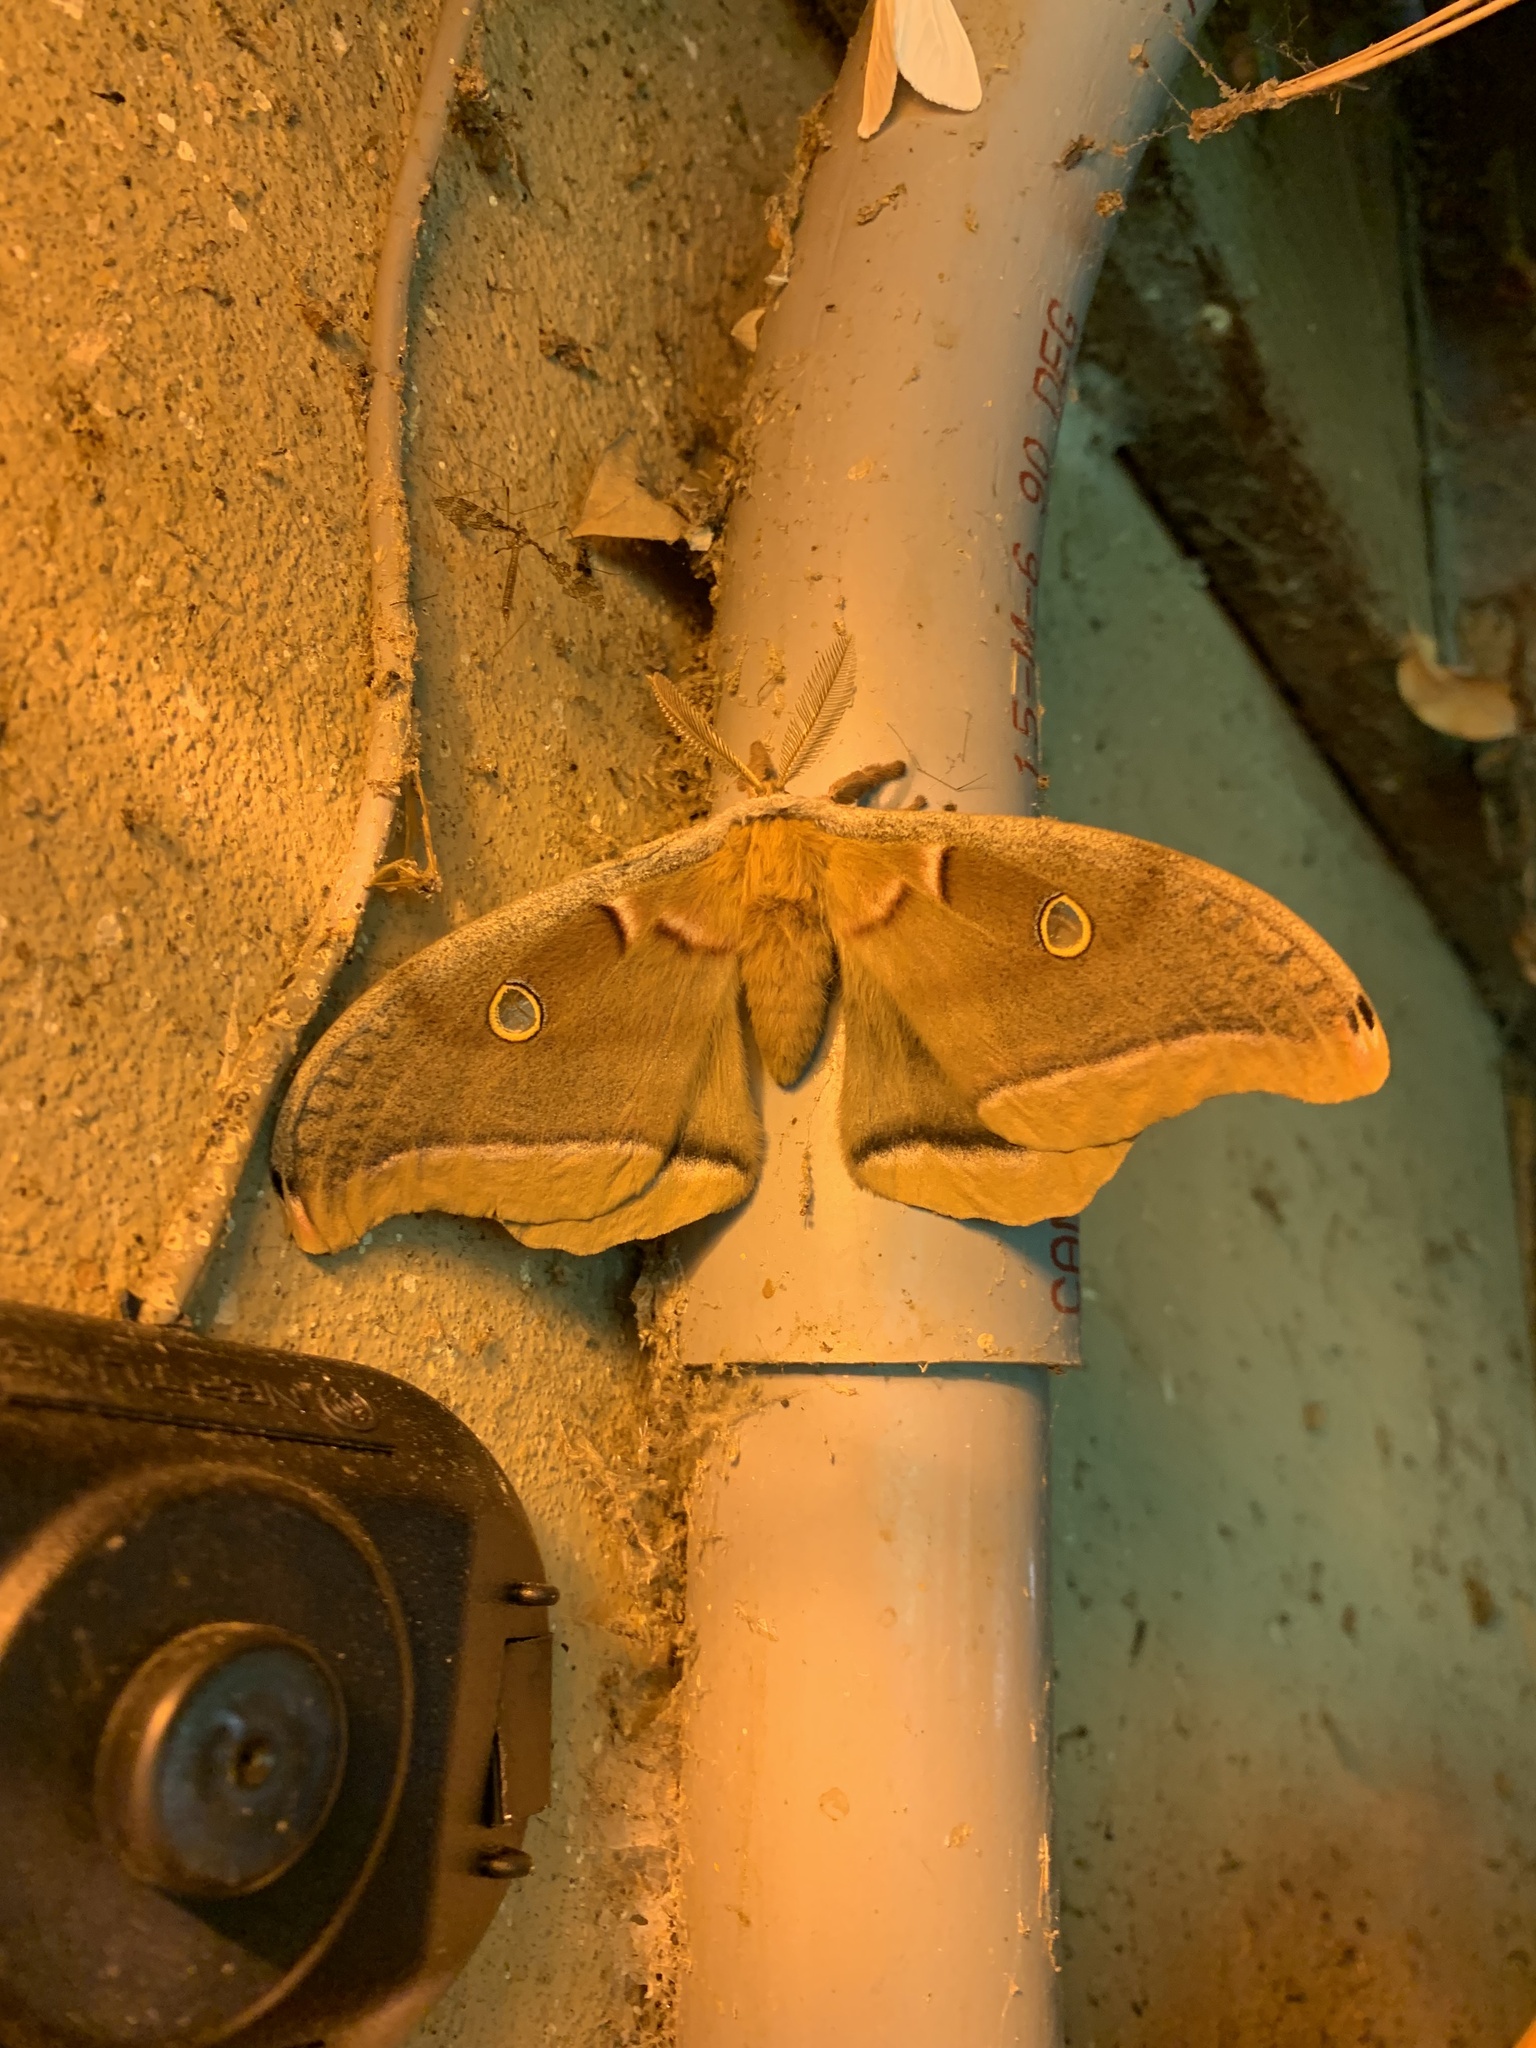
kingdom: Animalia
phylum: Arthropoda
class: Insecta
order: Lepidoptera
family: Saturniidae
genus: Antheraea
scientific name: Antheraea polyphemus
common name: Polyphemus moth
